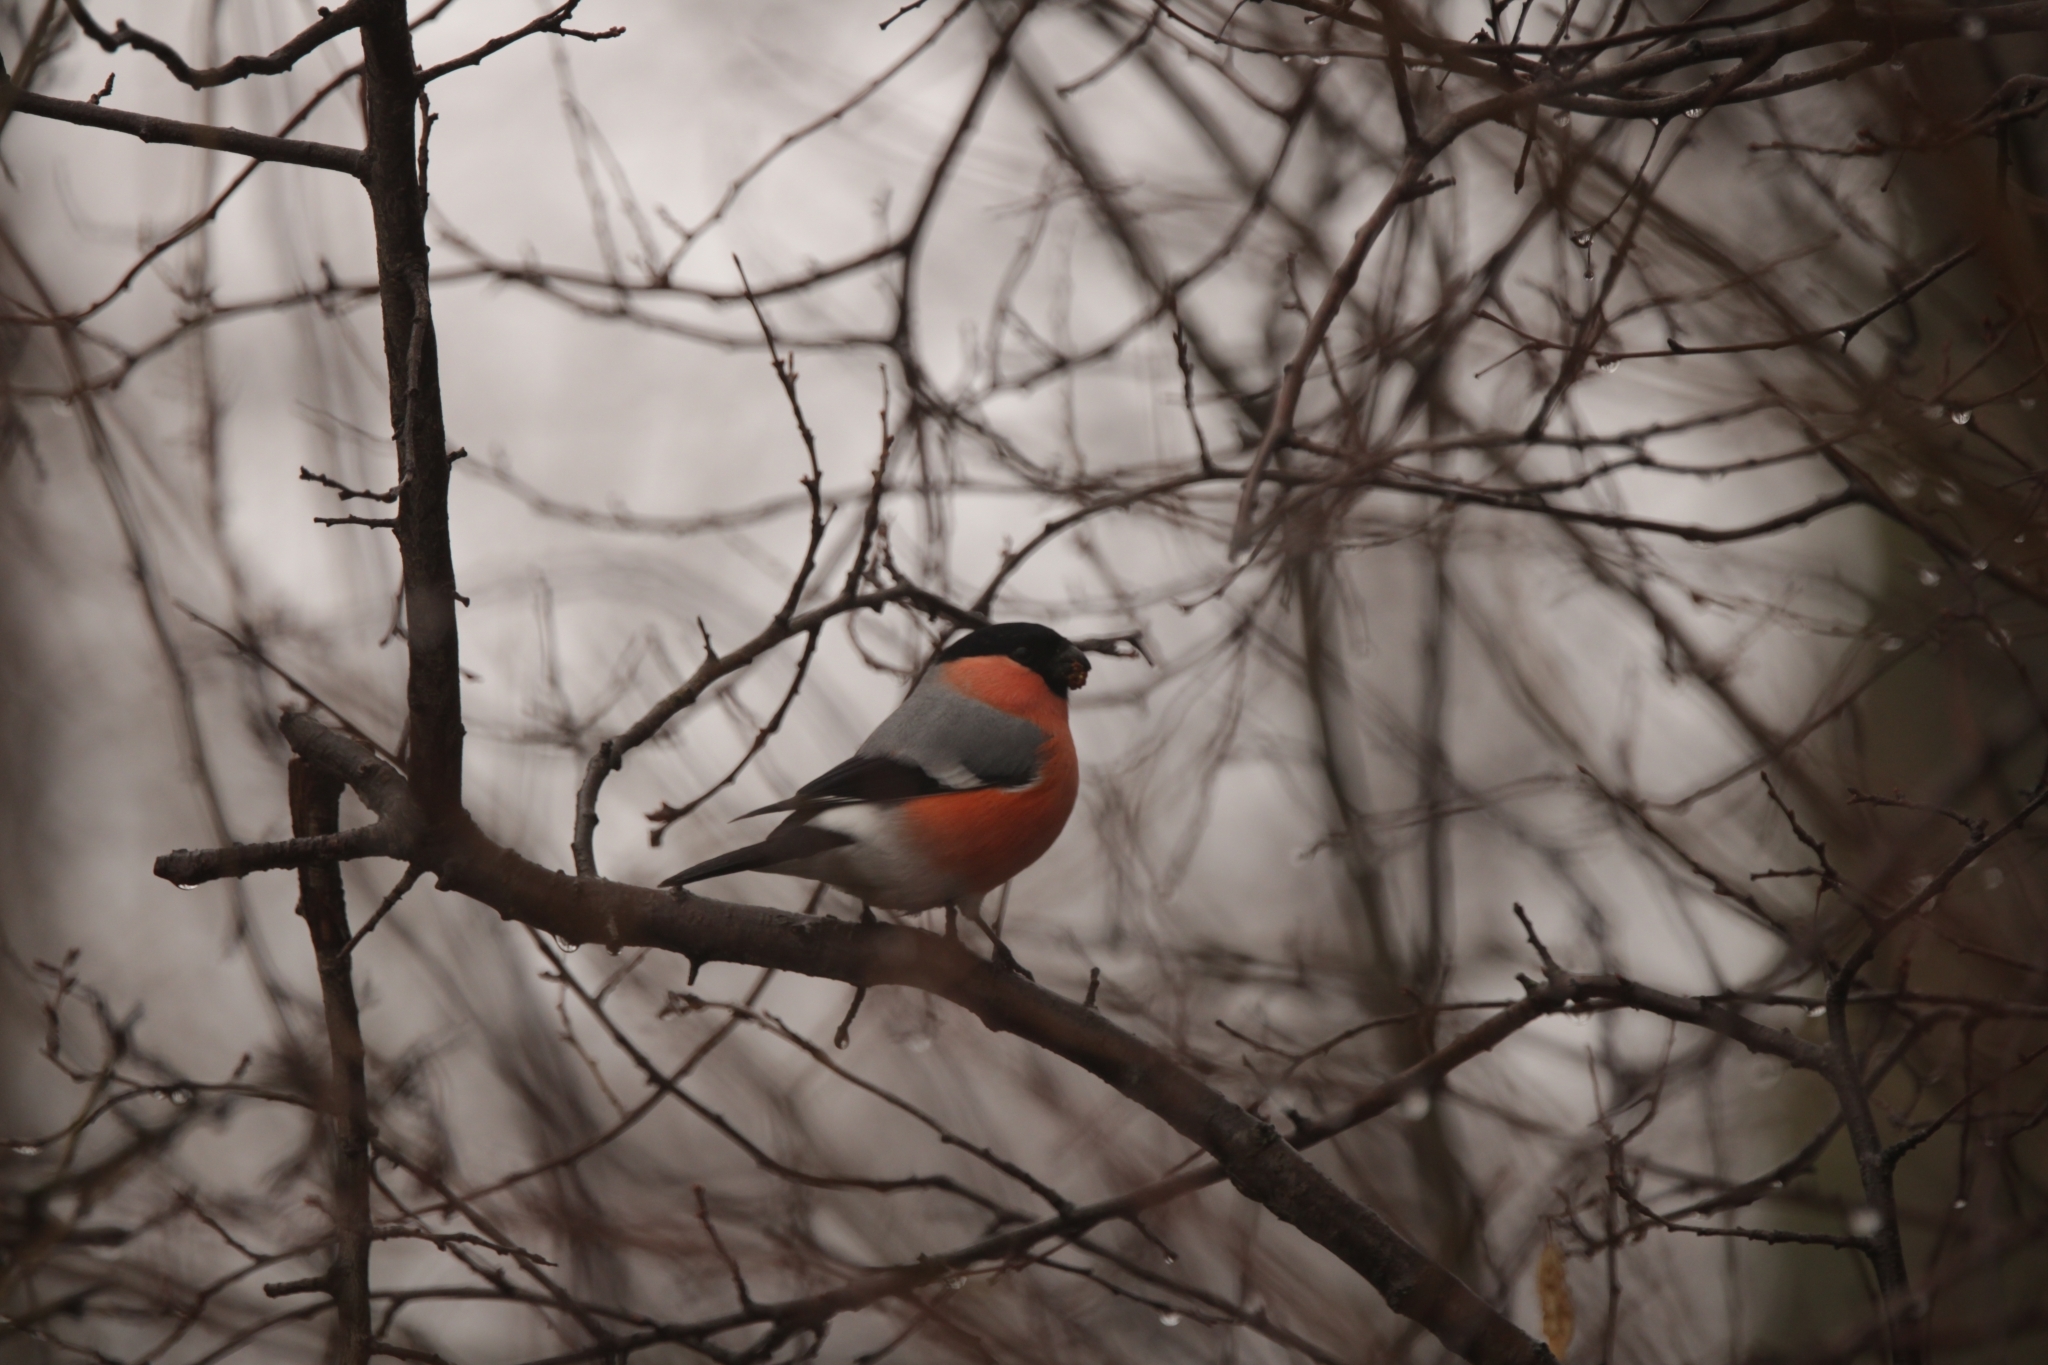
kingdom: Animalia
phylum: Chordata
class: Aves
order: Passeriformes
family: Fringillidae
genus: Pyrrhula
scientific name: Pyrrhula pyrrhula
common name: Eurasian bullfinch
